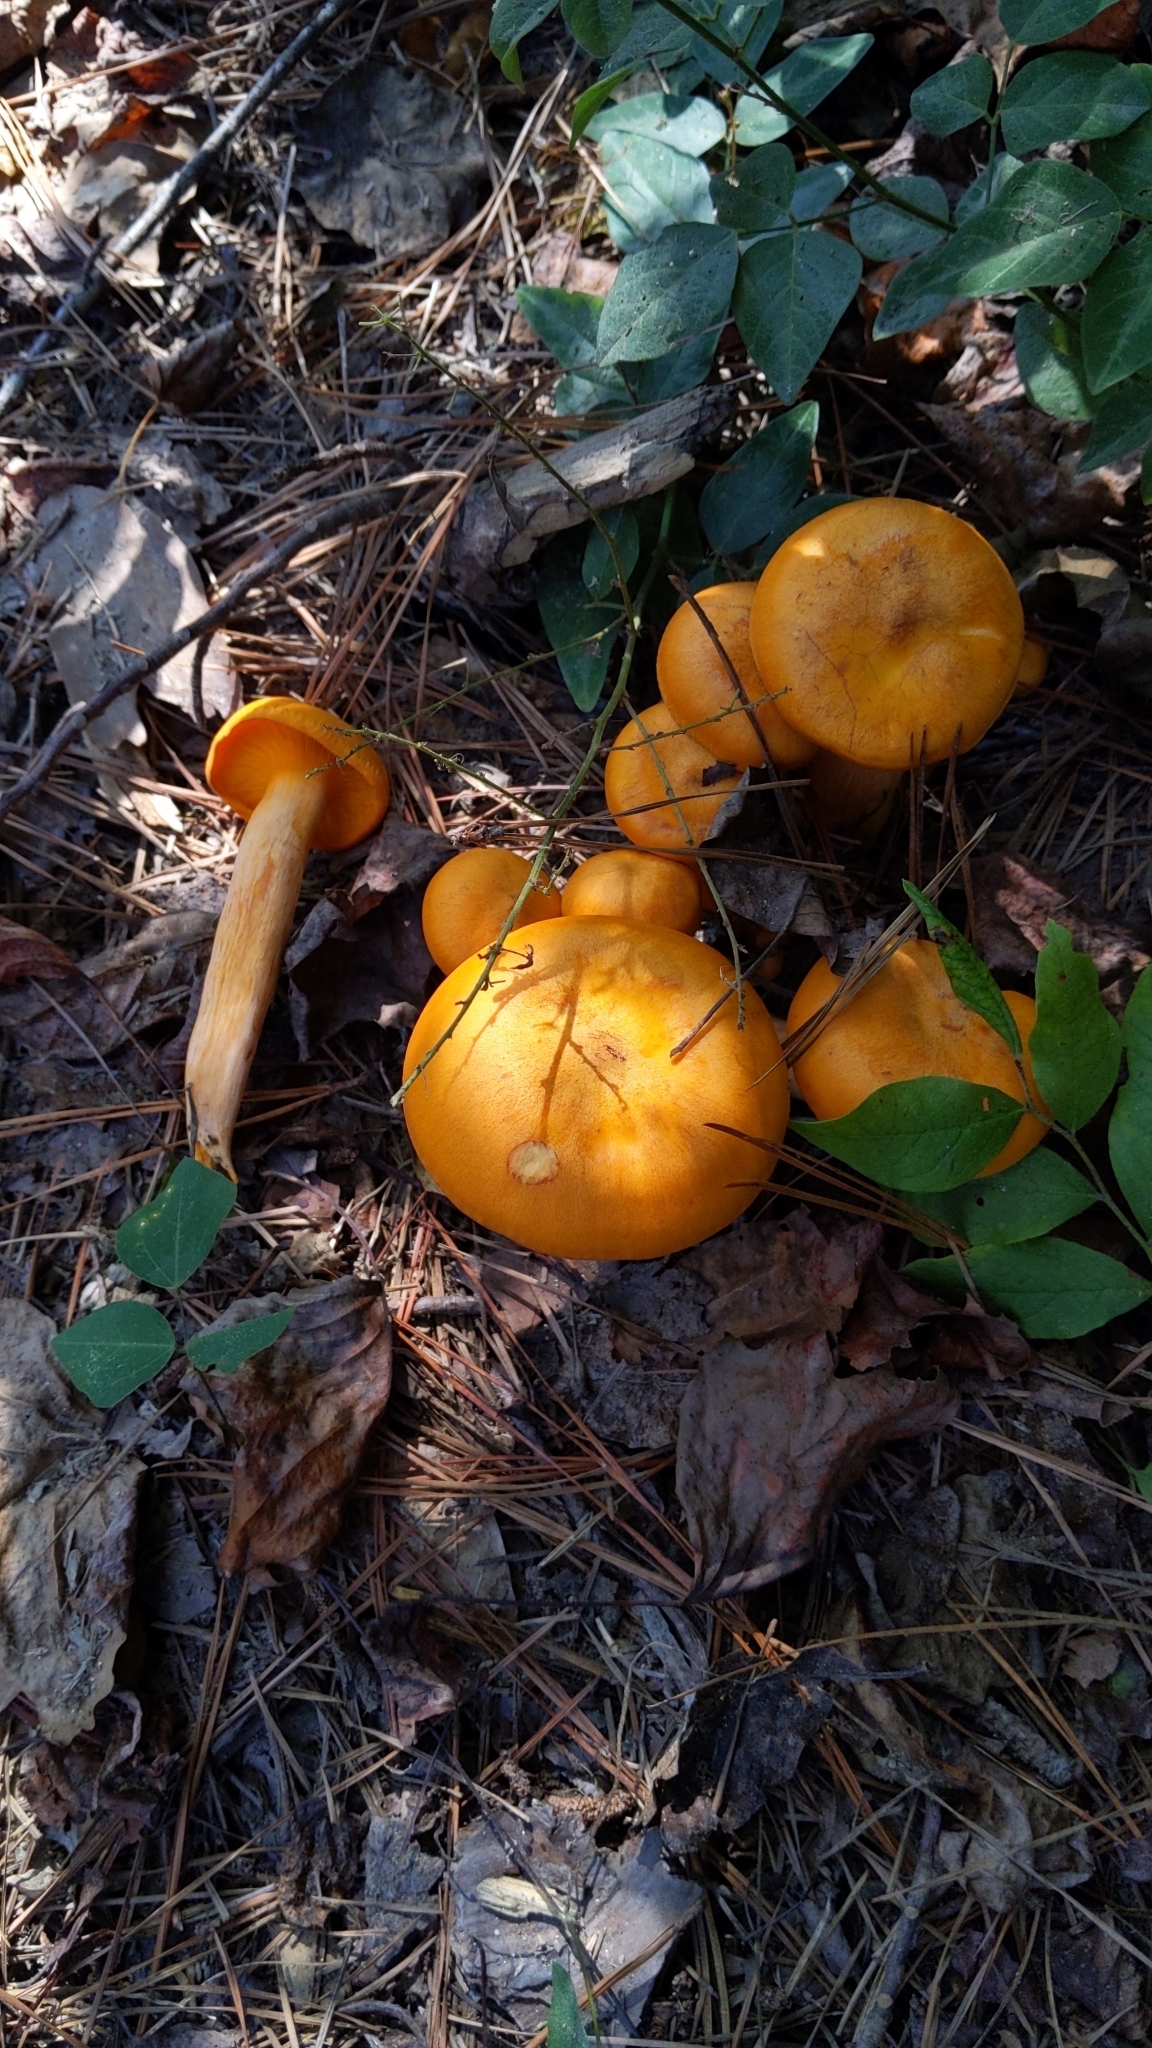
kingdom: Fungi
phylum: Basidiomycota
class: Agaricomycetes
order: Agaricales
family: Omphalotaceae
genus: Omphalotus
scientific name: Omphalotus illudens
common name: Jack o lantern
